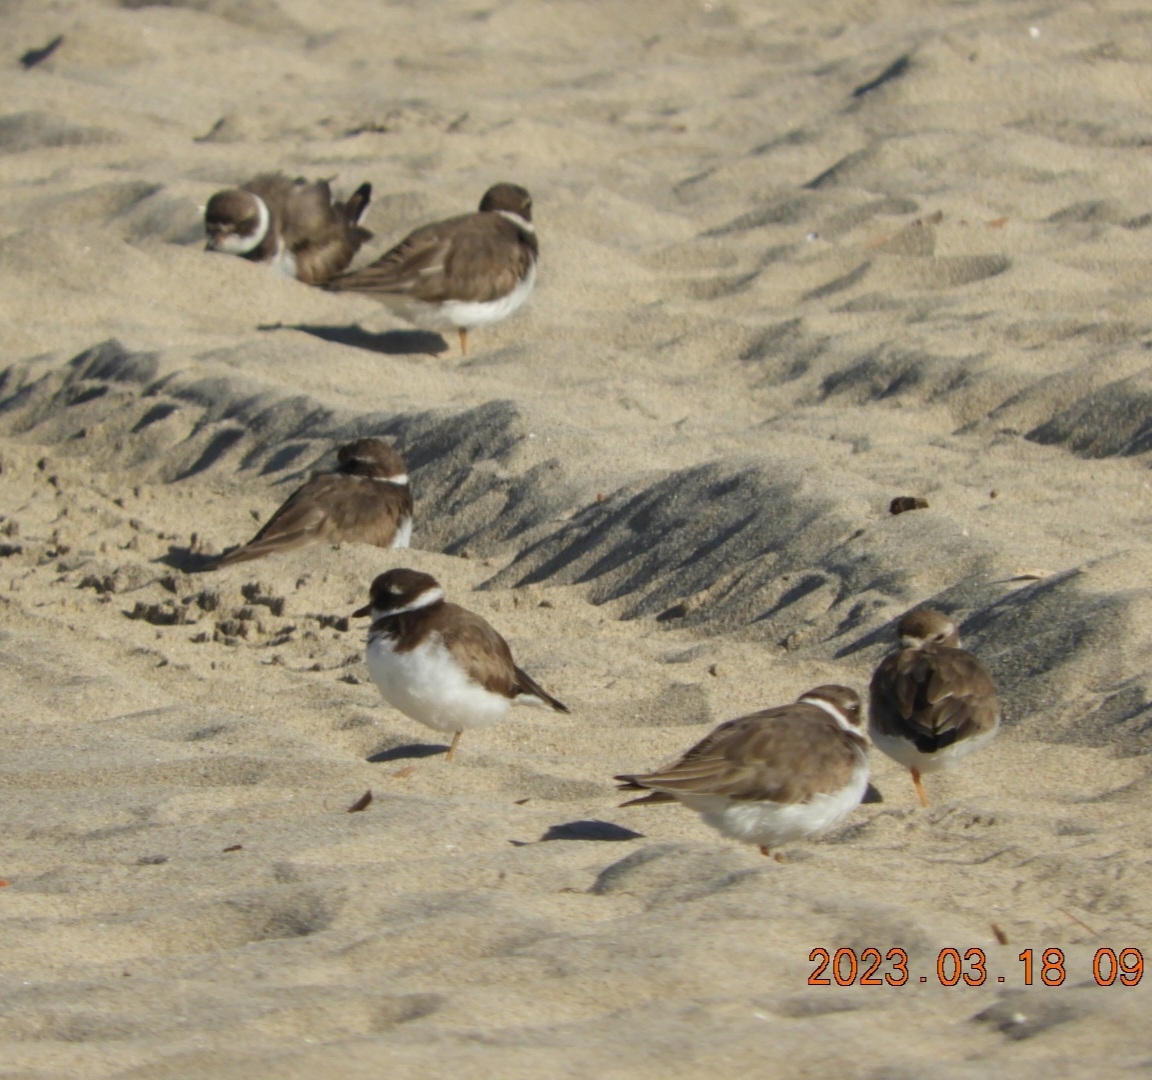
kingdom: Animalia
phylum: Chordata
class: Aves
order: Charadriiformes
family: Charadriidae
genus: Charadrius
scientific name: Charadrius semipalmatus
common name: Semipalmated plover
